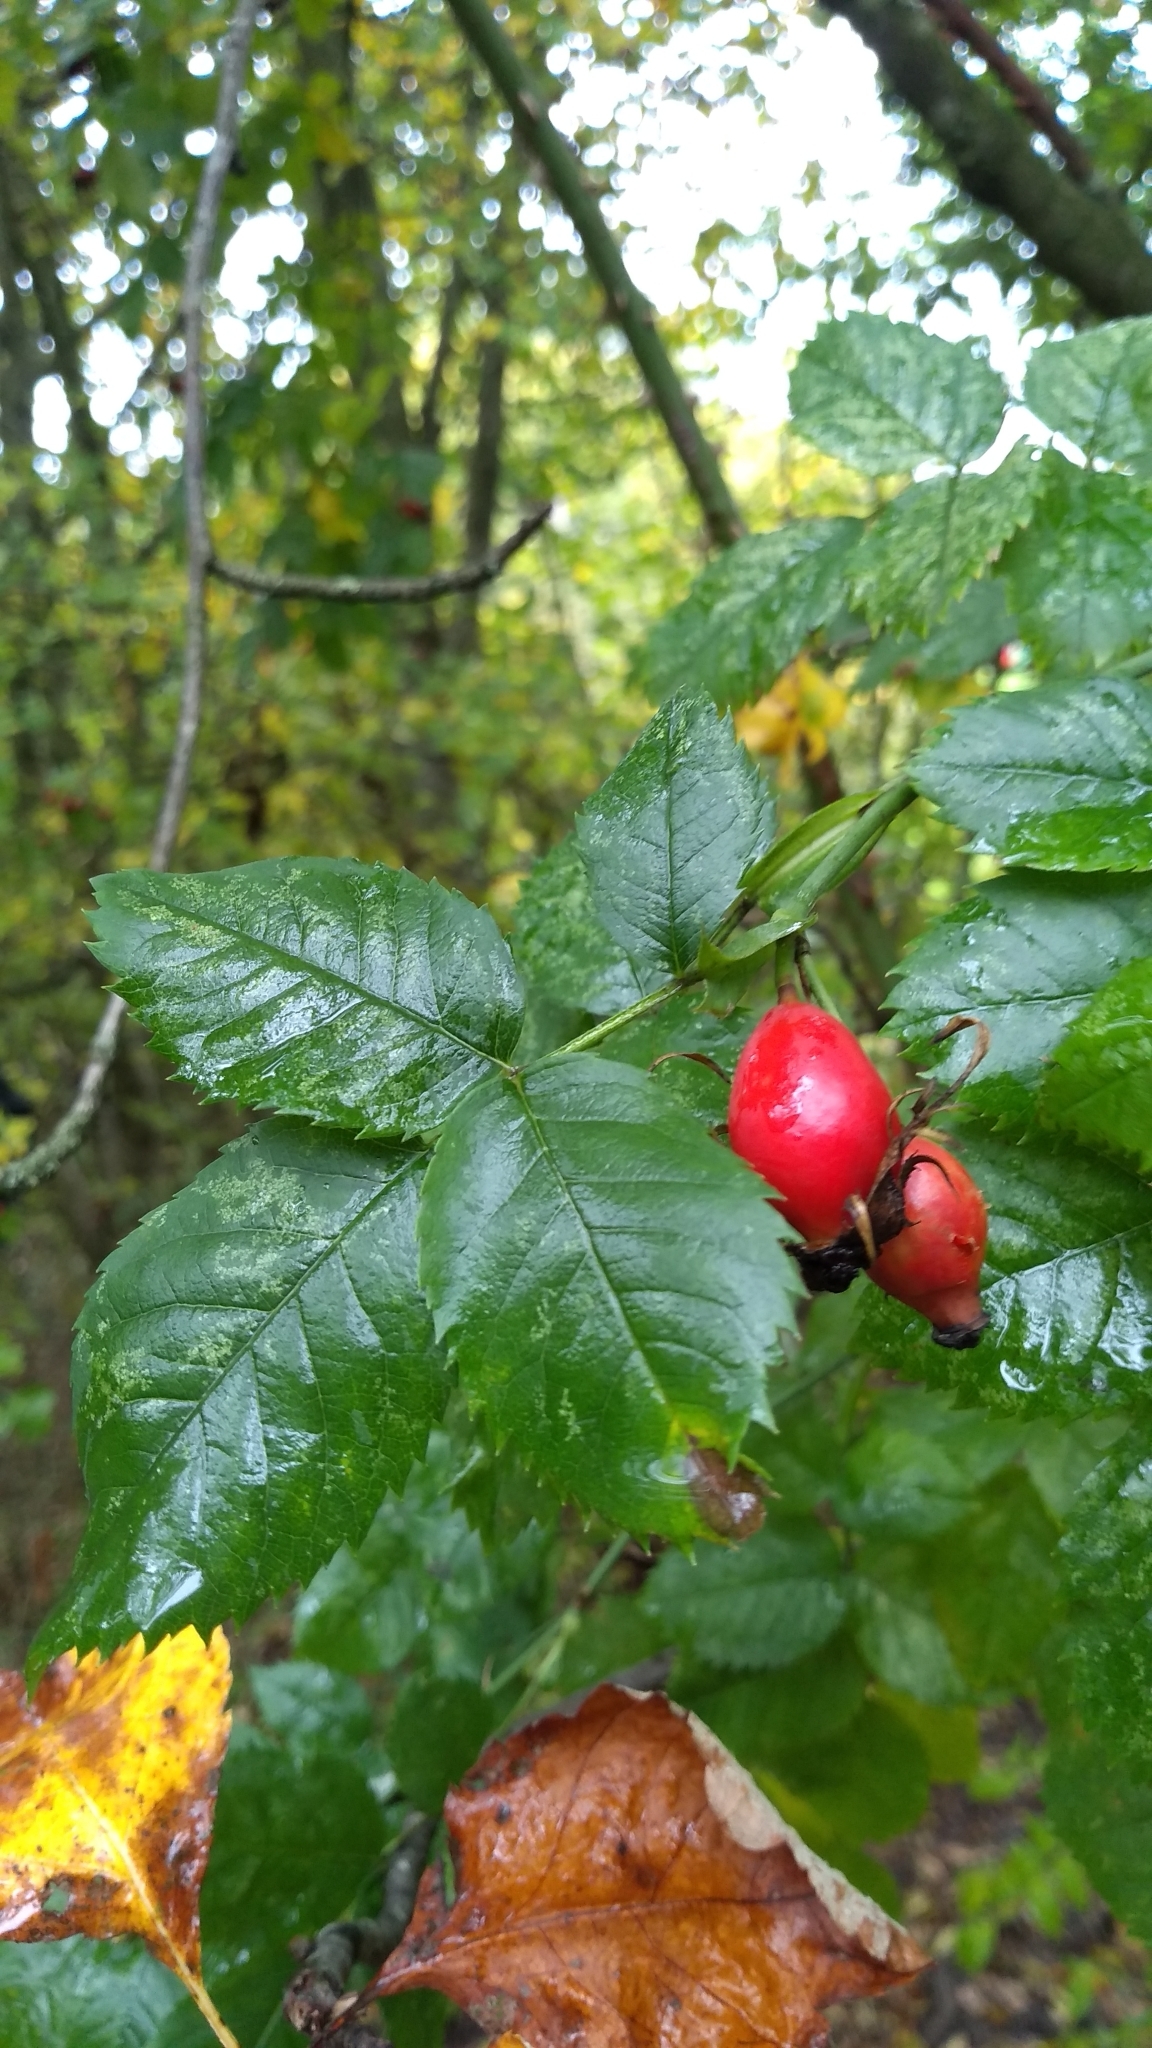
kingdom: Plantae
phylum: Tracheophyta
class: Magnoliopsida
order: Rosales
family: Rosaceae
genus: Rosa
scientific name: Rosa canina
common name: Dog rose
